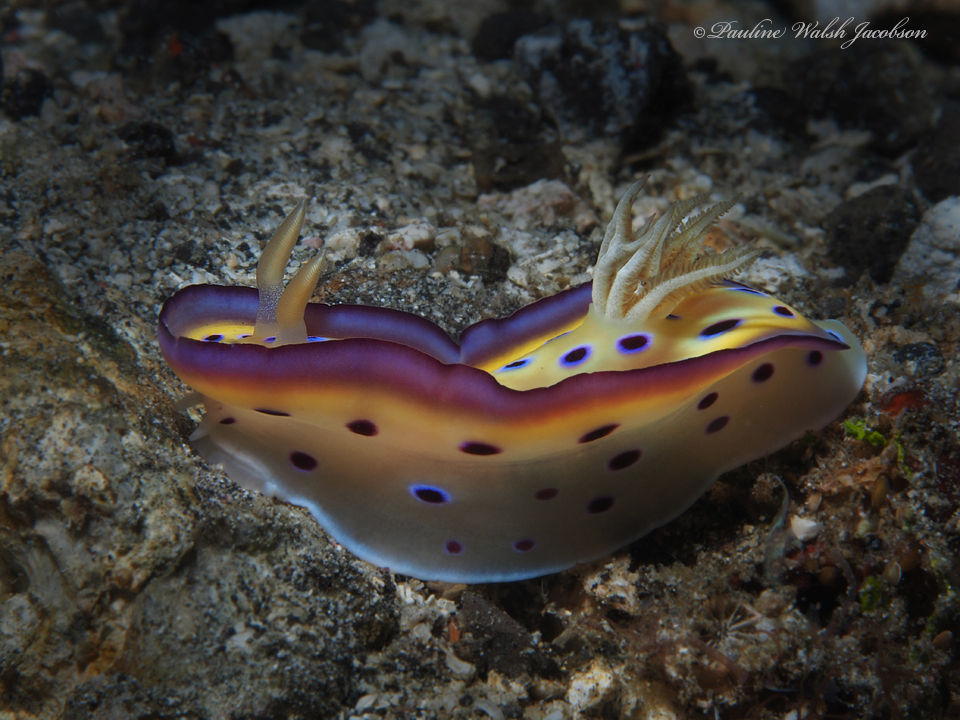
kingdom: Animalia
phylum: Mollusca
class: Gastropoda
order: Nudibranchia
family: Chromodorididae
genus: Goniobranchus
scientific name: Goniobranchus kuniei
